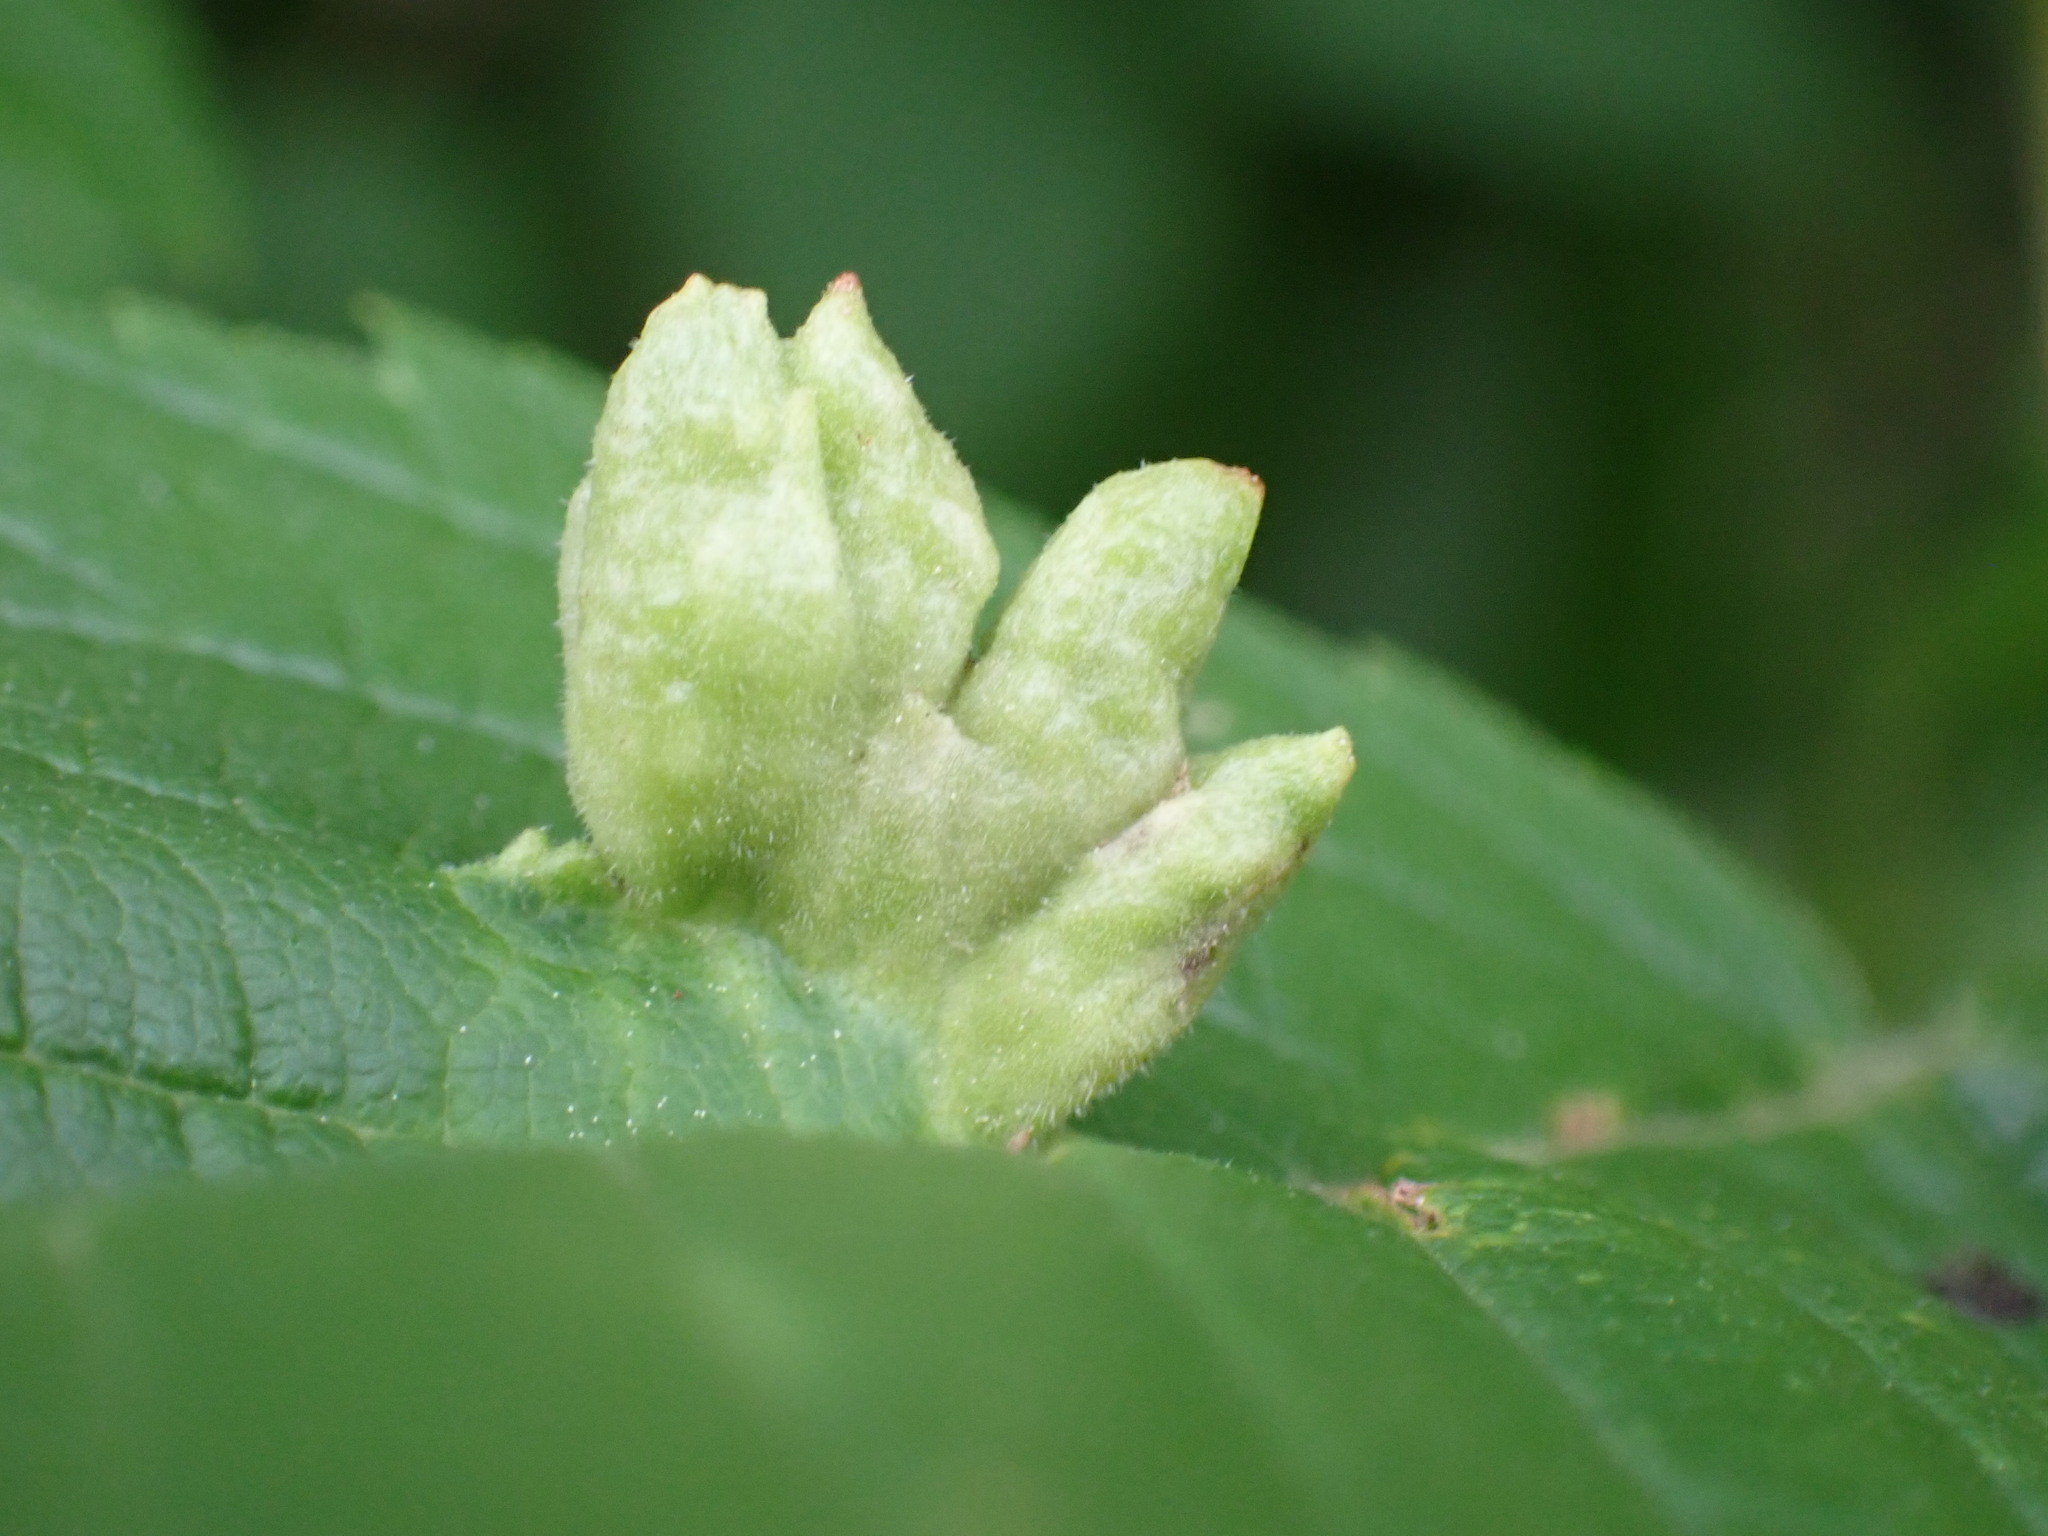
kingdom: Animalia
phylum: Arthropoda
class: Insecta
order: Hemiptera
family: Aphididae
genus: Colopha
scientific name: Colopha ulmicola
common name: Elm cockscombgall aphid
